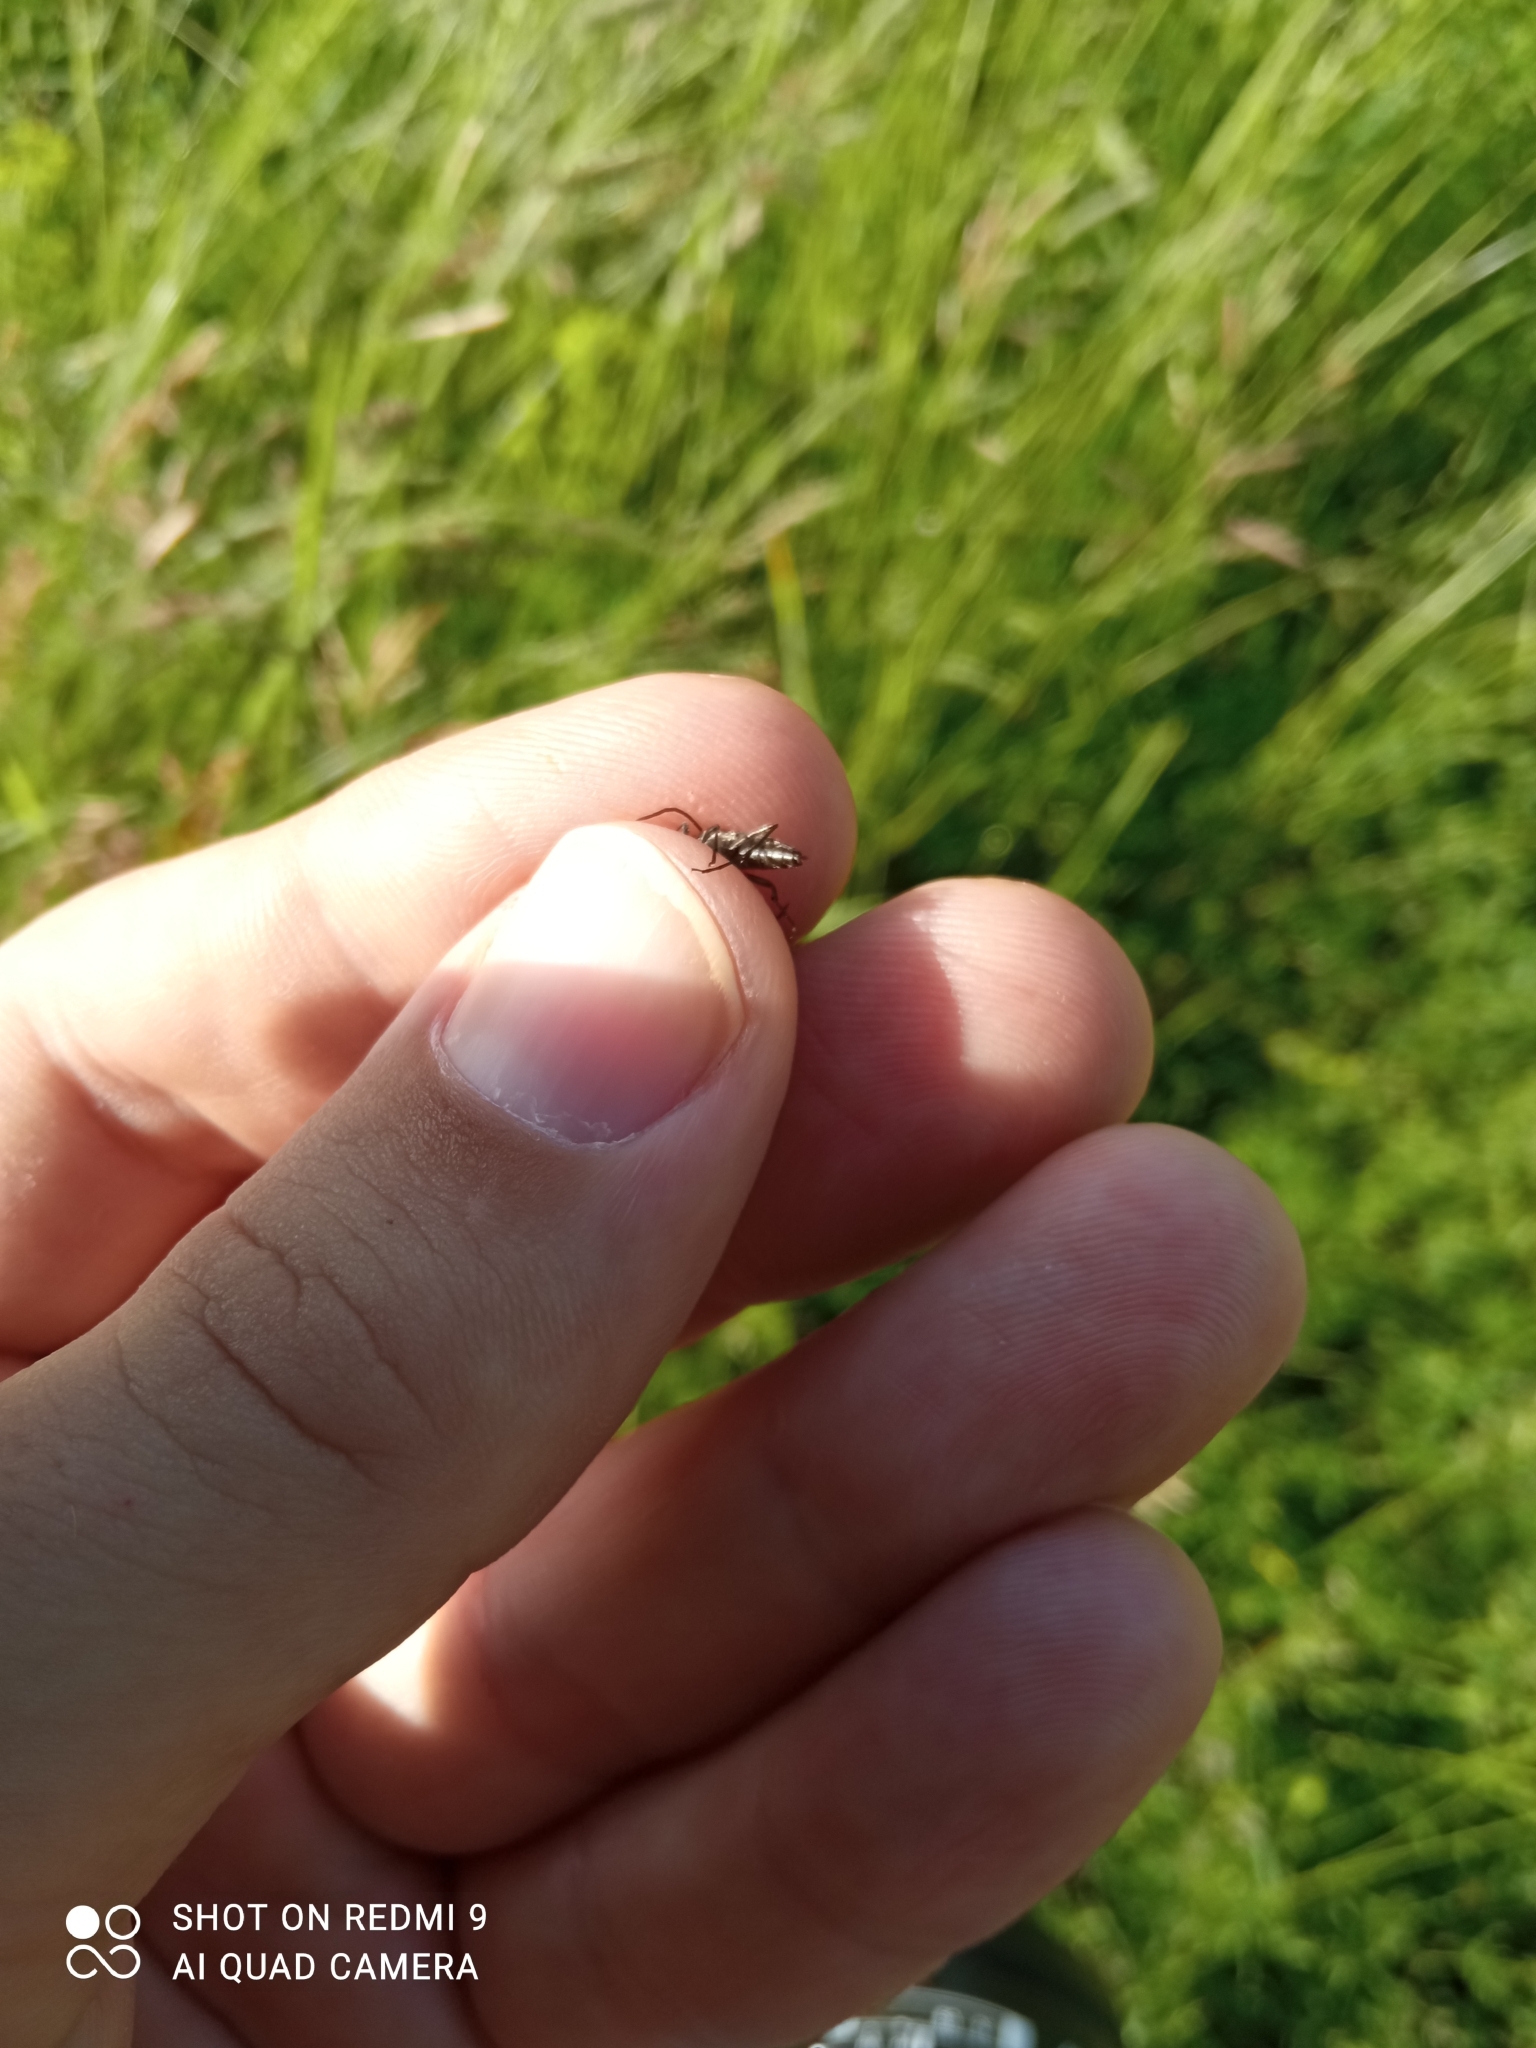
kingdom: Animalia
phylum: Arthropoda
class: Insecta
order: Coleoptera
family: Cerambycidae
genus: Stenurella
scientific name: Stenurella melanura
